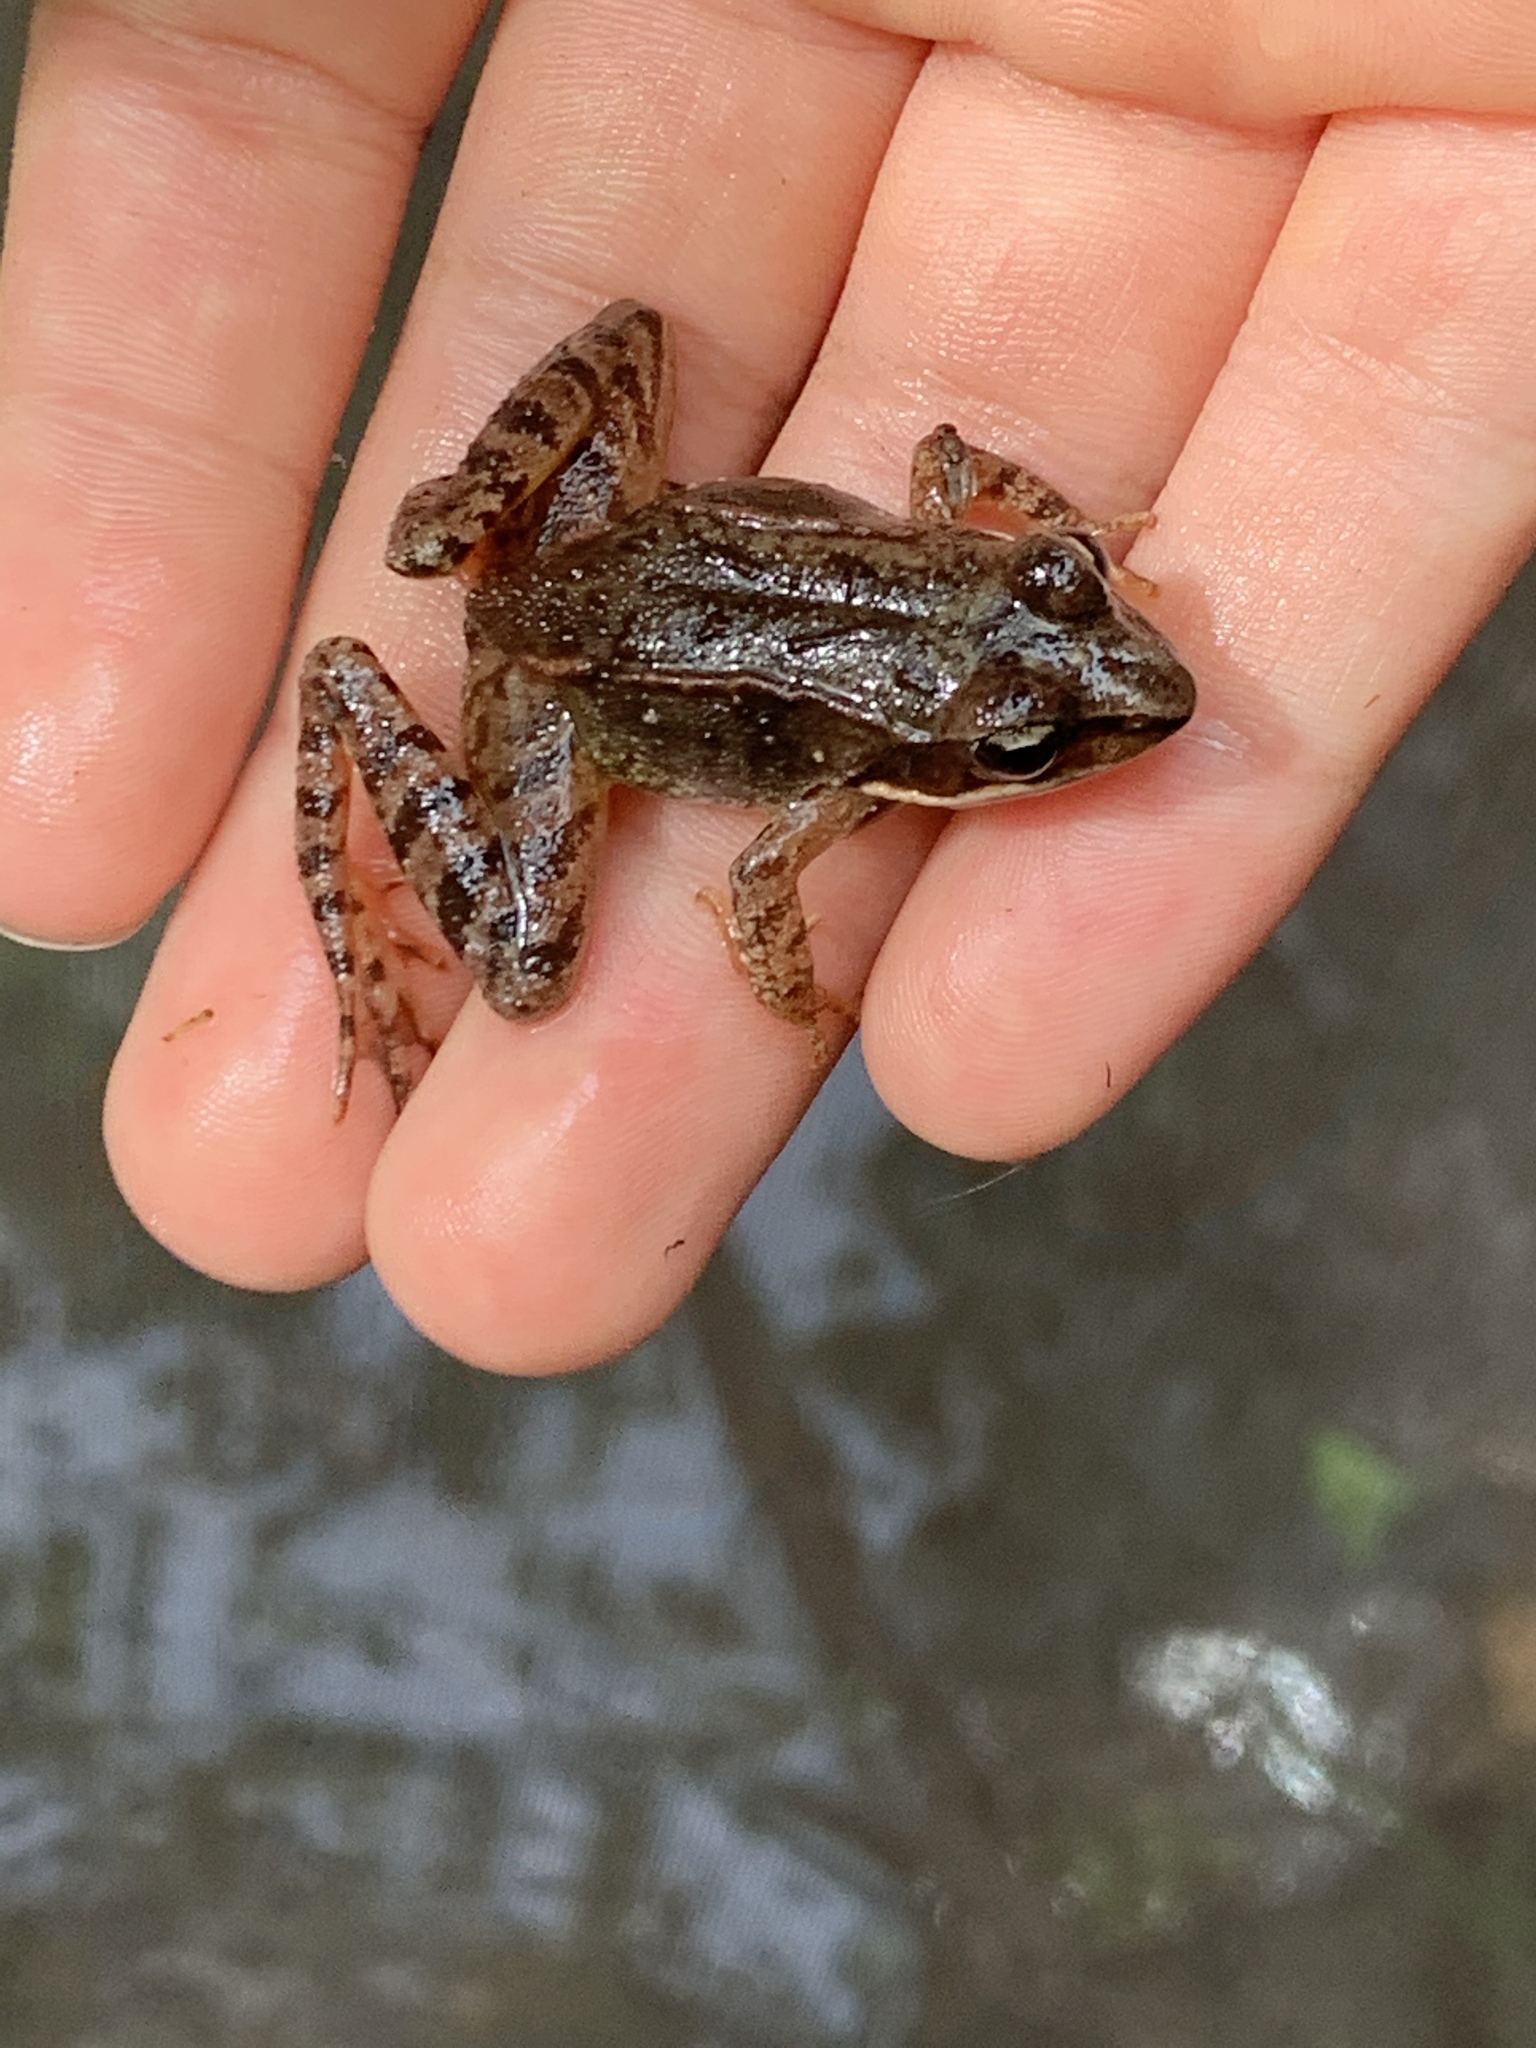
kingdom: Animalia
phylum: Chordata
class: Amphibia
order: Anura
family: Ranidae
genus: Lithobates
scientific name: Lithobates sylvaticus
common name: Wood frog
